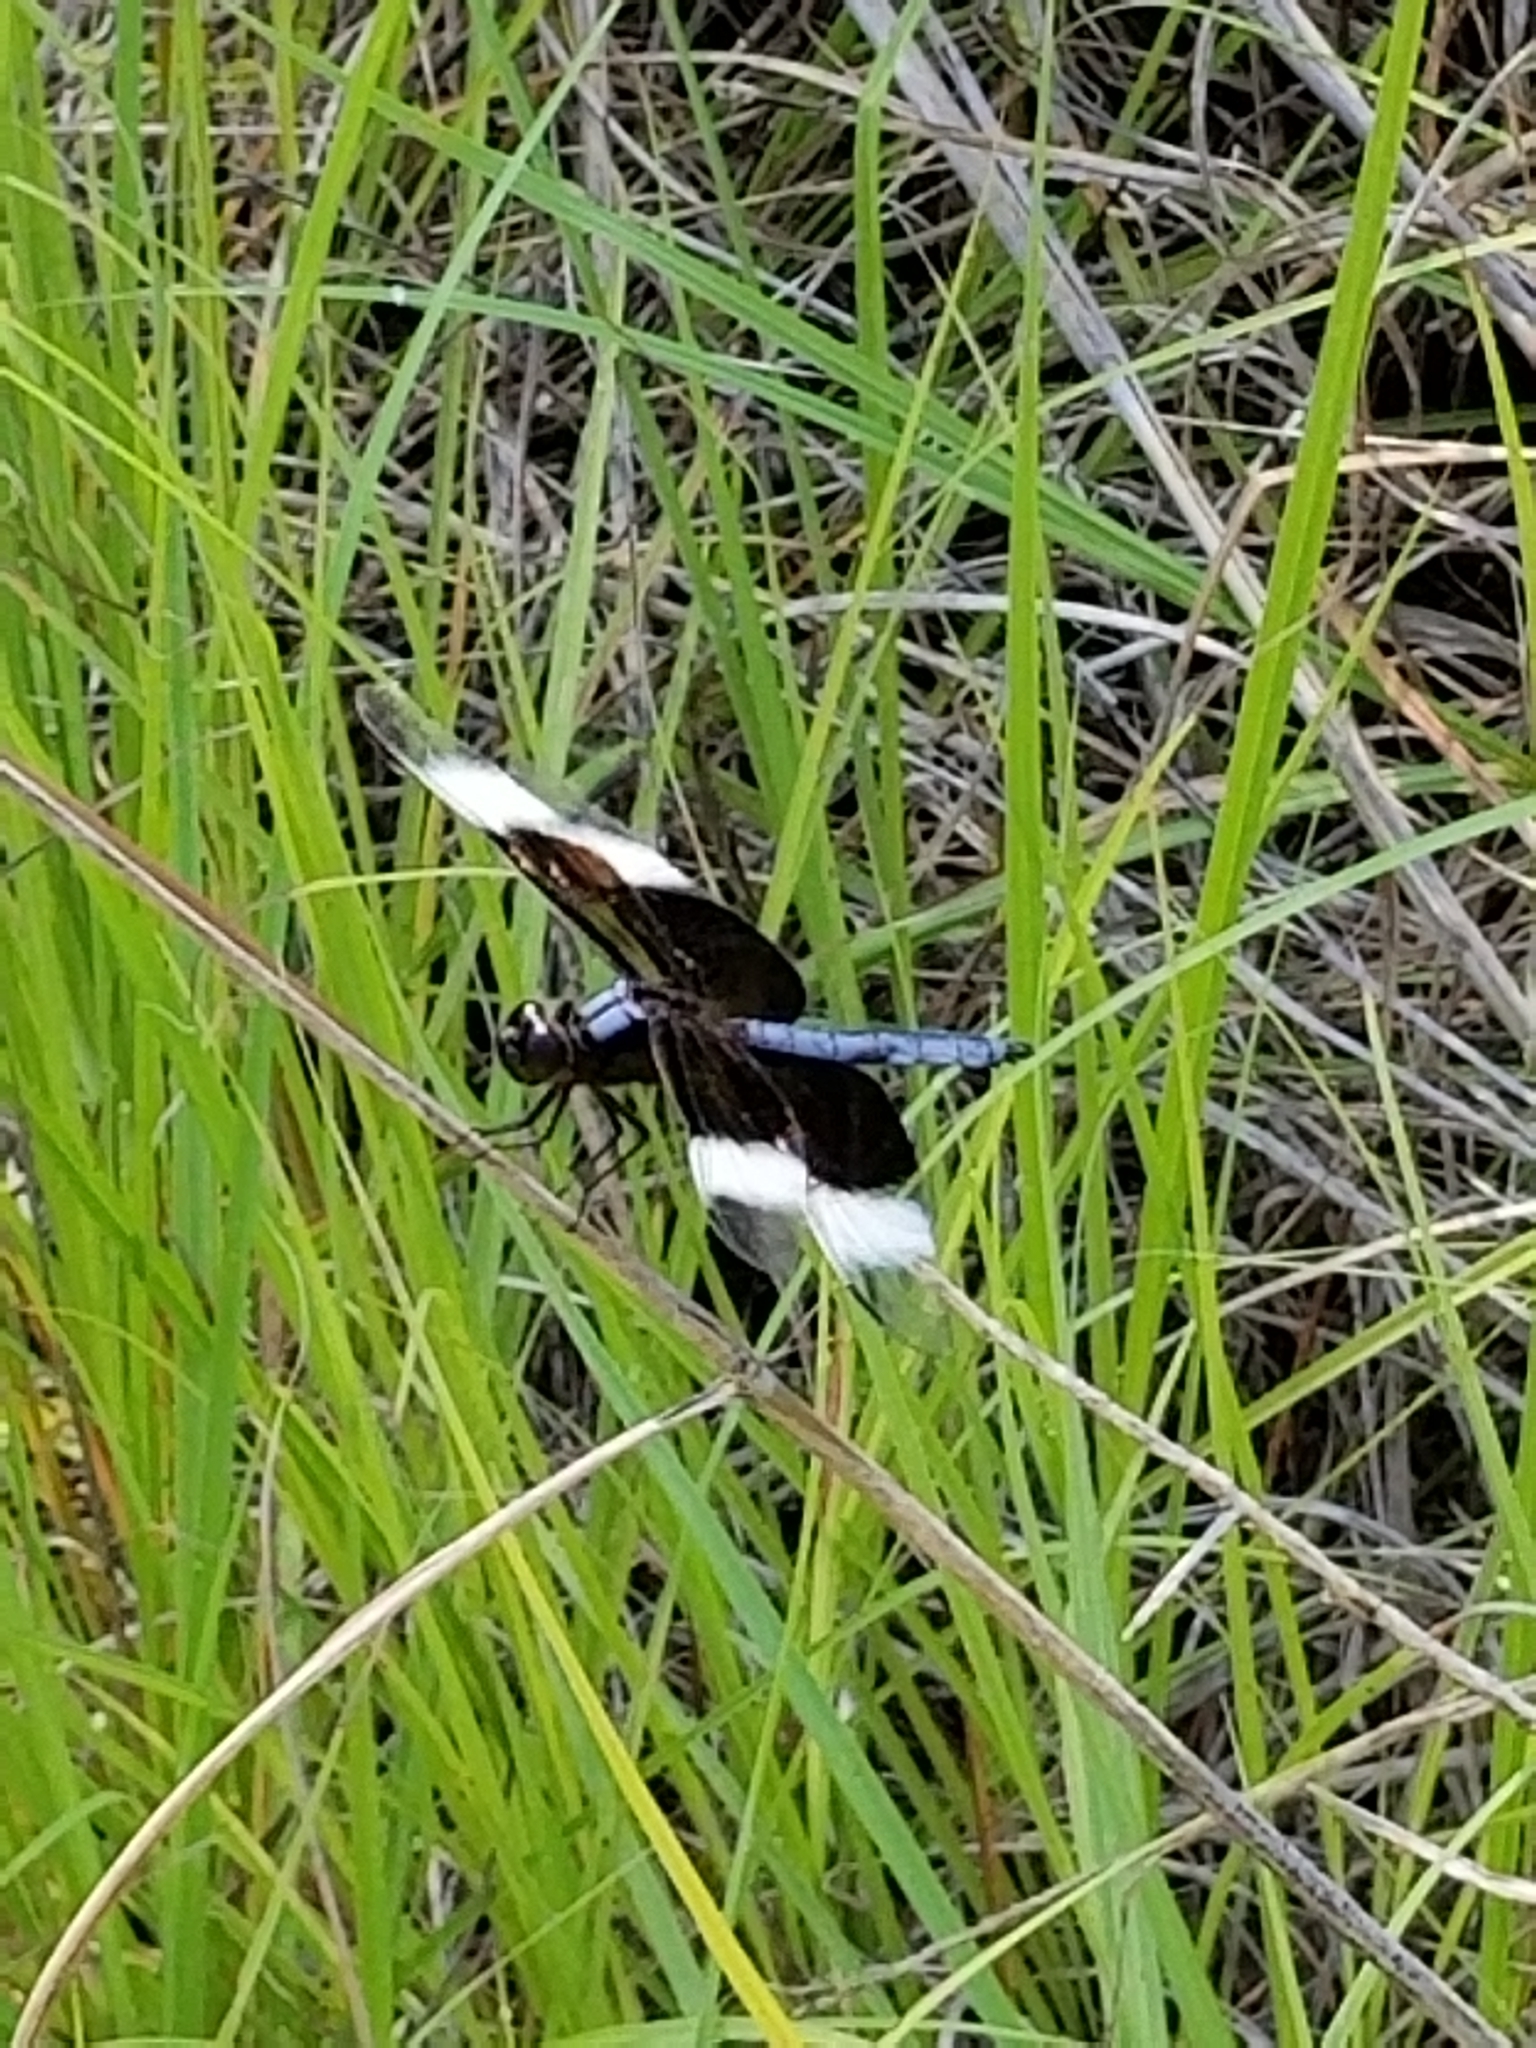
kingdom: Animalia
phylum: Arthropoda
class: Insecta
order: Odonata
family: Libellulidae
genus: Libellula
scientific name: Libellula luctuosa
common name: Widow skimmer
